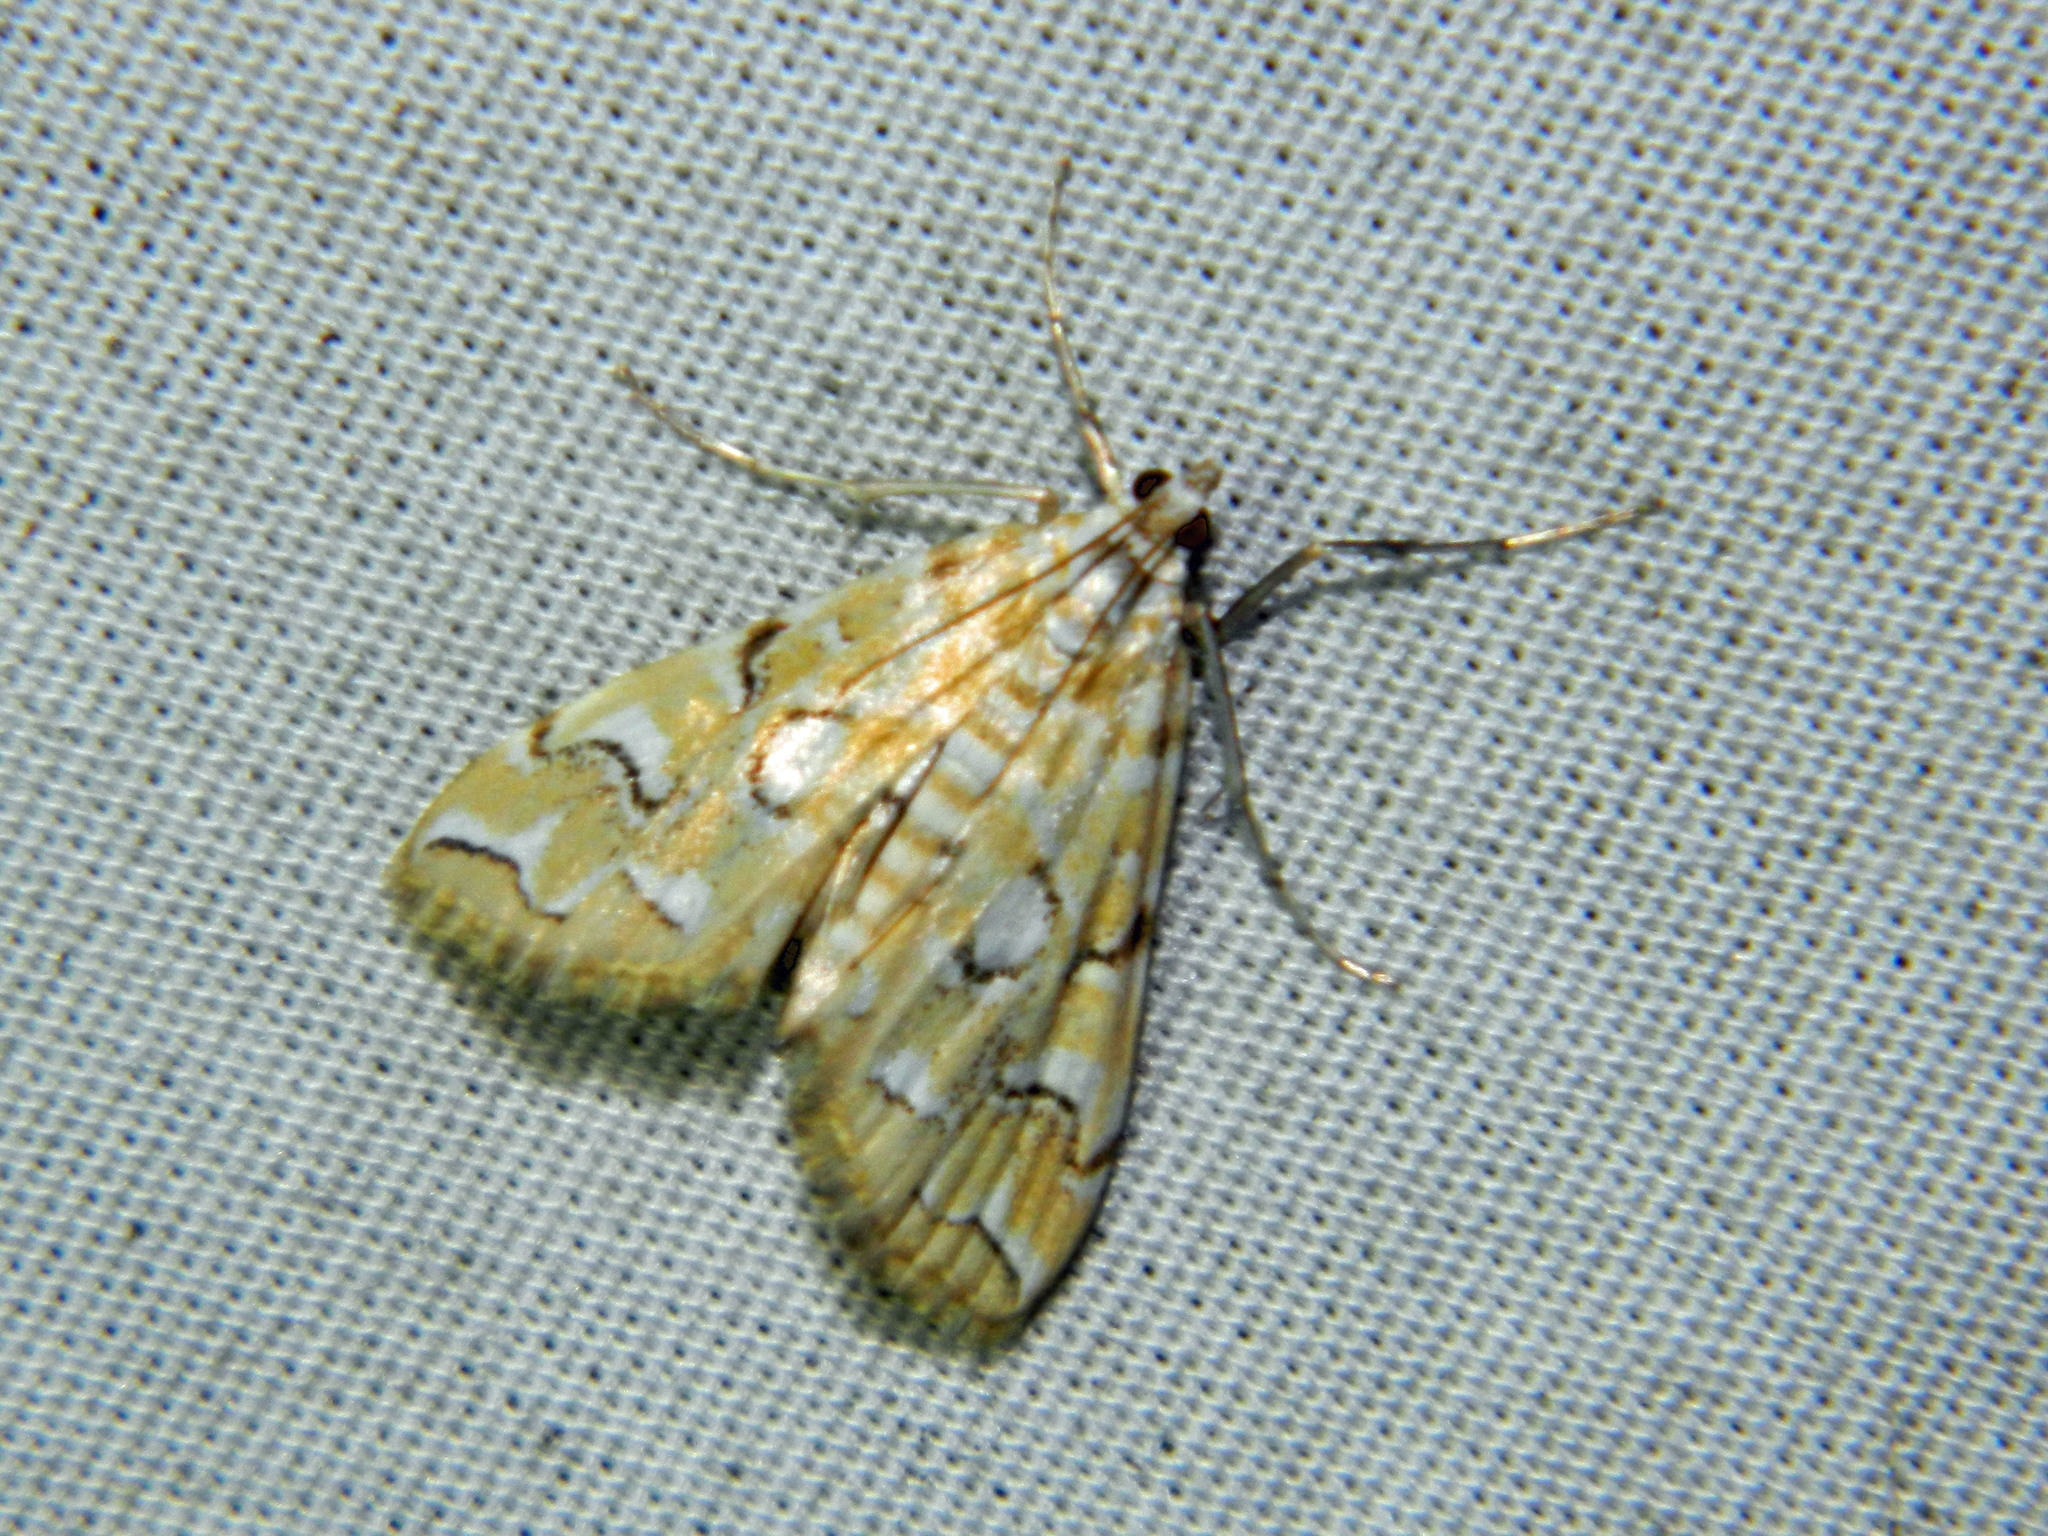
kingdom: Animalia
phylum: Arthropoda
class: Insecta
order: Lepidoptera
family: Crambidae
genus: Elophila
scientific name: Elophila icciusalis
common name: Pondside pyralid moth
